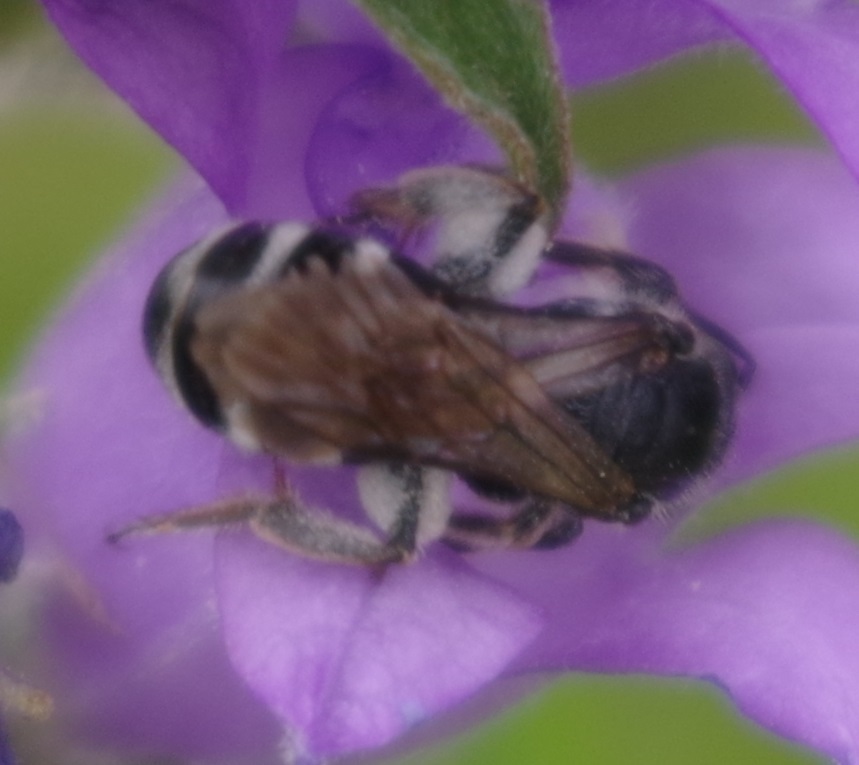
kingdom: Animalia
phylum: Arthropoda
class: Insecta
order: Hymenoptera
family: Halictidae
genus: Lasioglossum
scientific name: Lasioglossum costulatum
